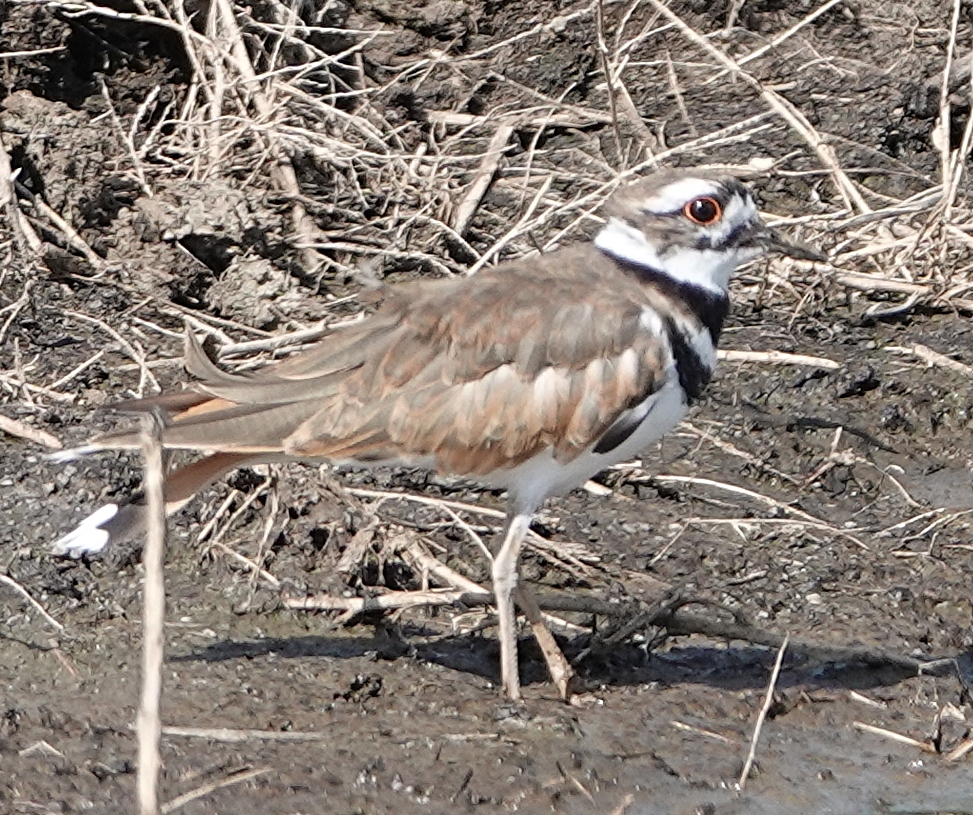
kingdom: Animalia
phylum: Chordata
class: Aves
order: Charadriiformes
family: Charadriidae
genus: Charadrius
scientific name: Charadrius vociferus
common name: Killdeer
